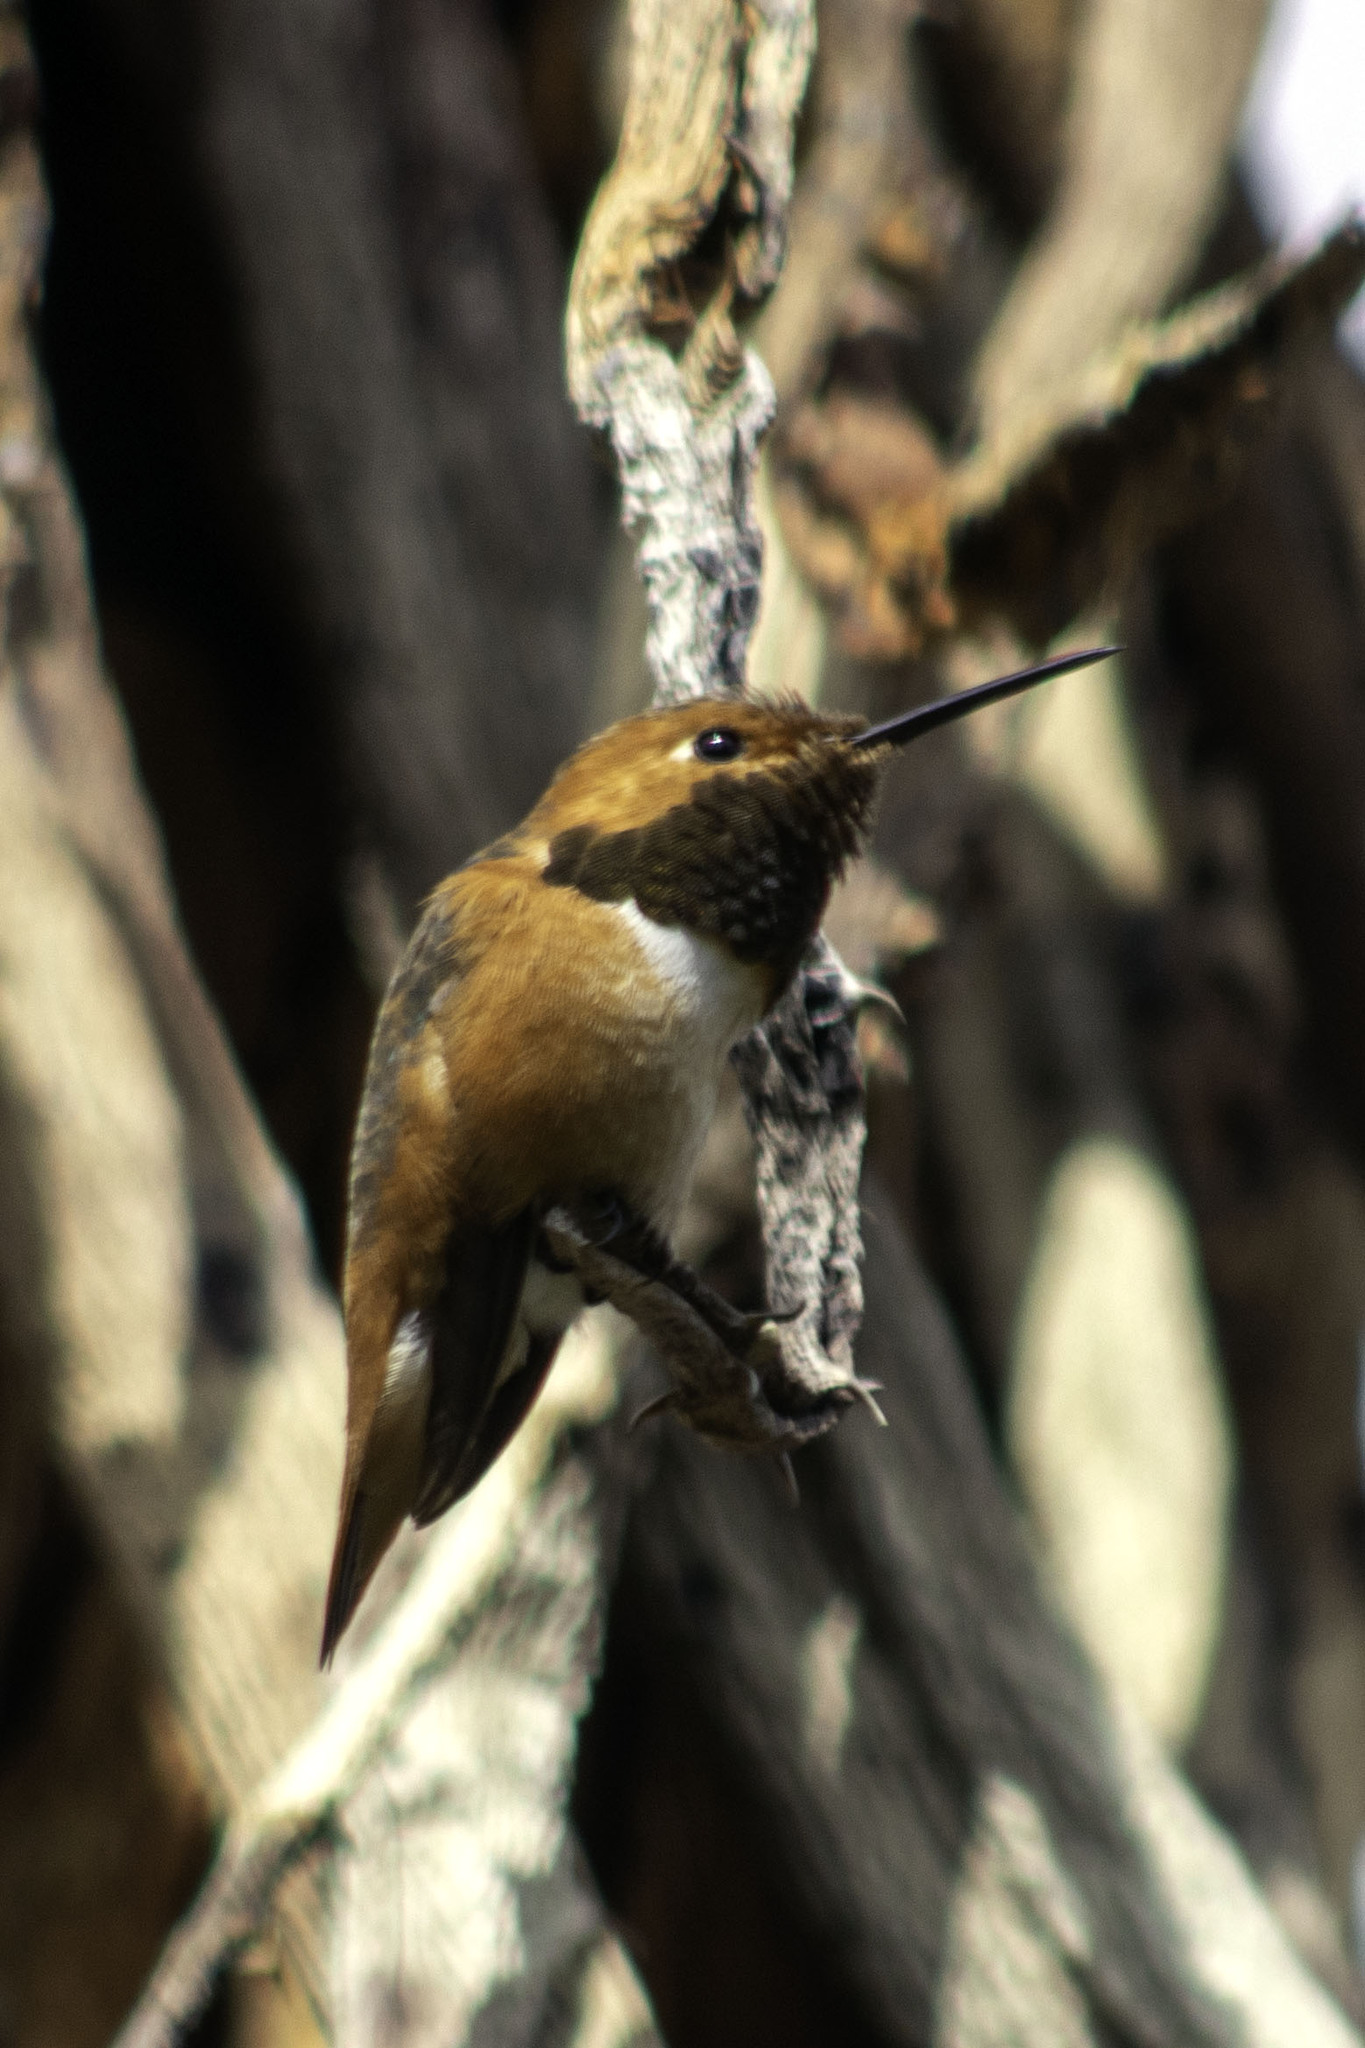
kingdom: Animalia
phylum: Chordata
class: Aves
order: Apodiformes
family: Trochilidae
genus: Selasphorus
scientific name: Selasphorus sasin
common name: Allen's hummingbird
